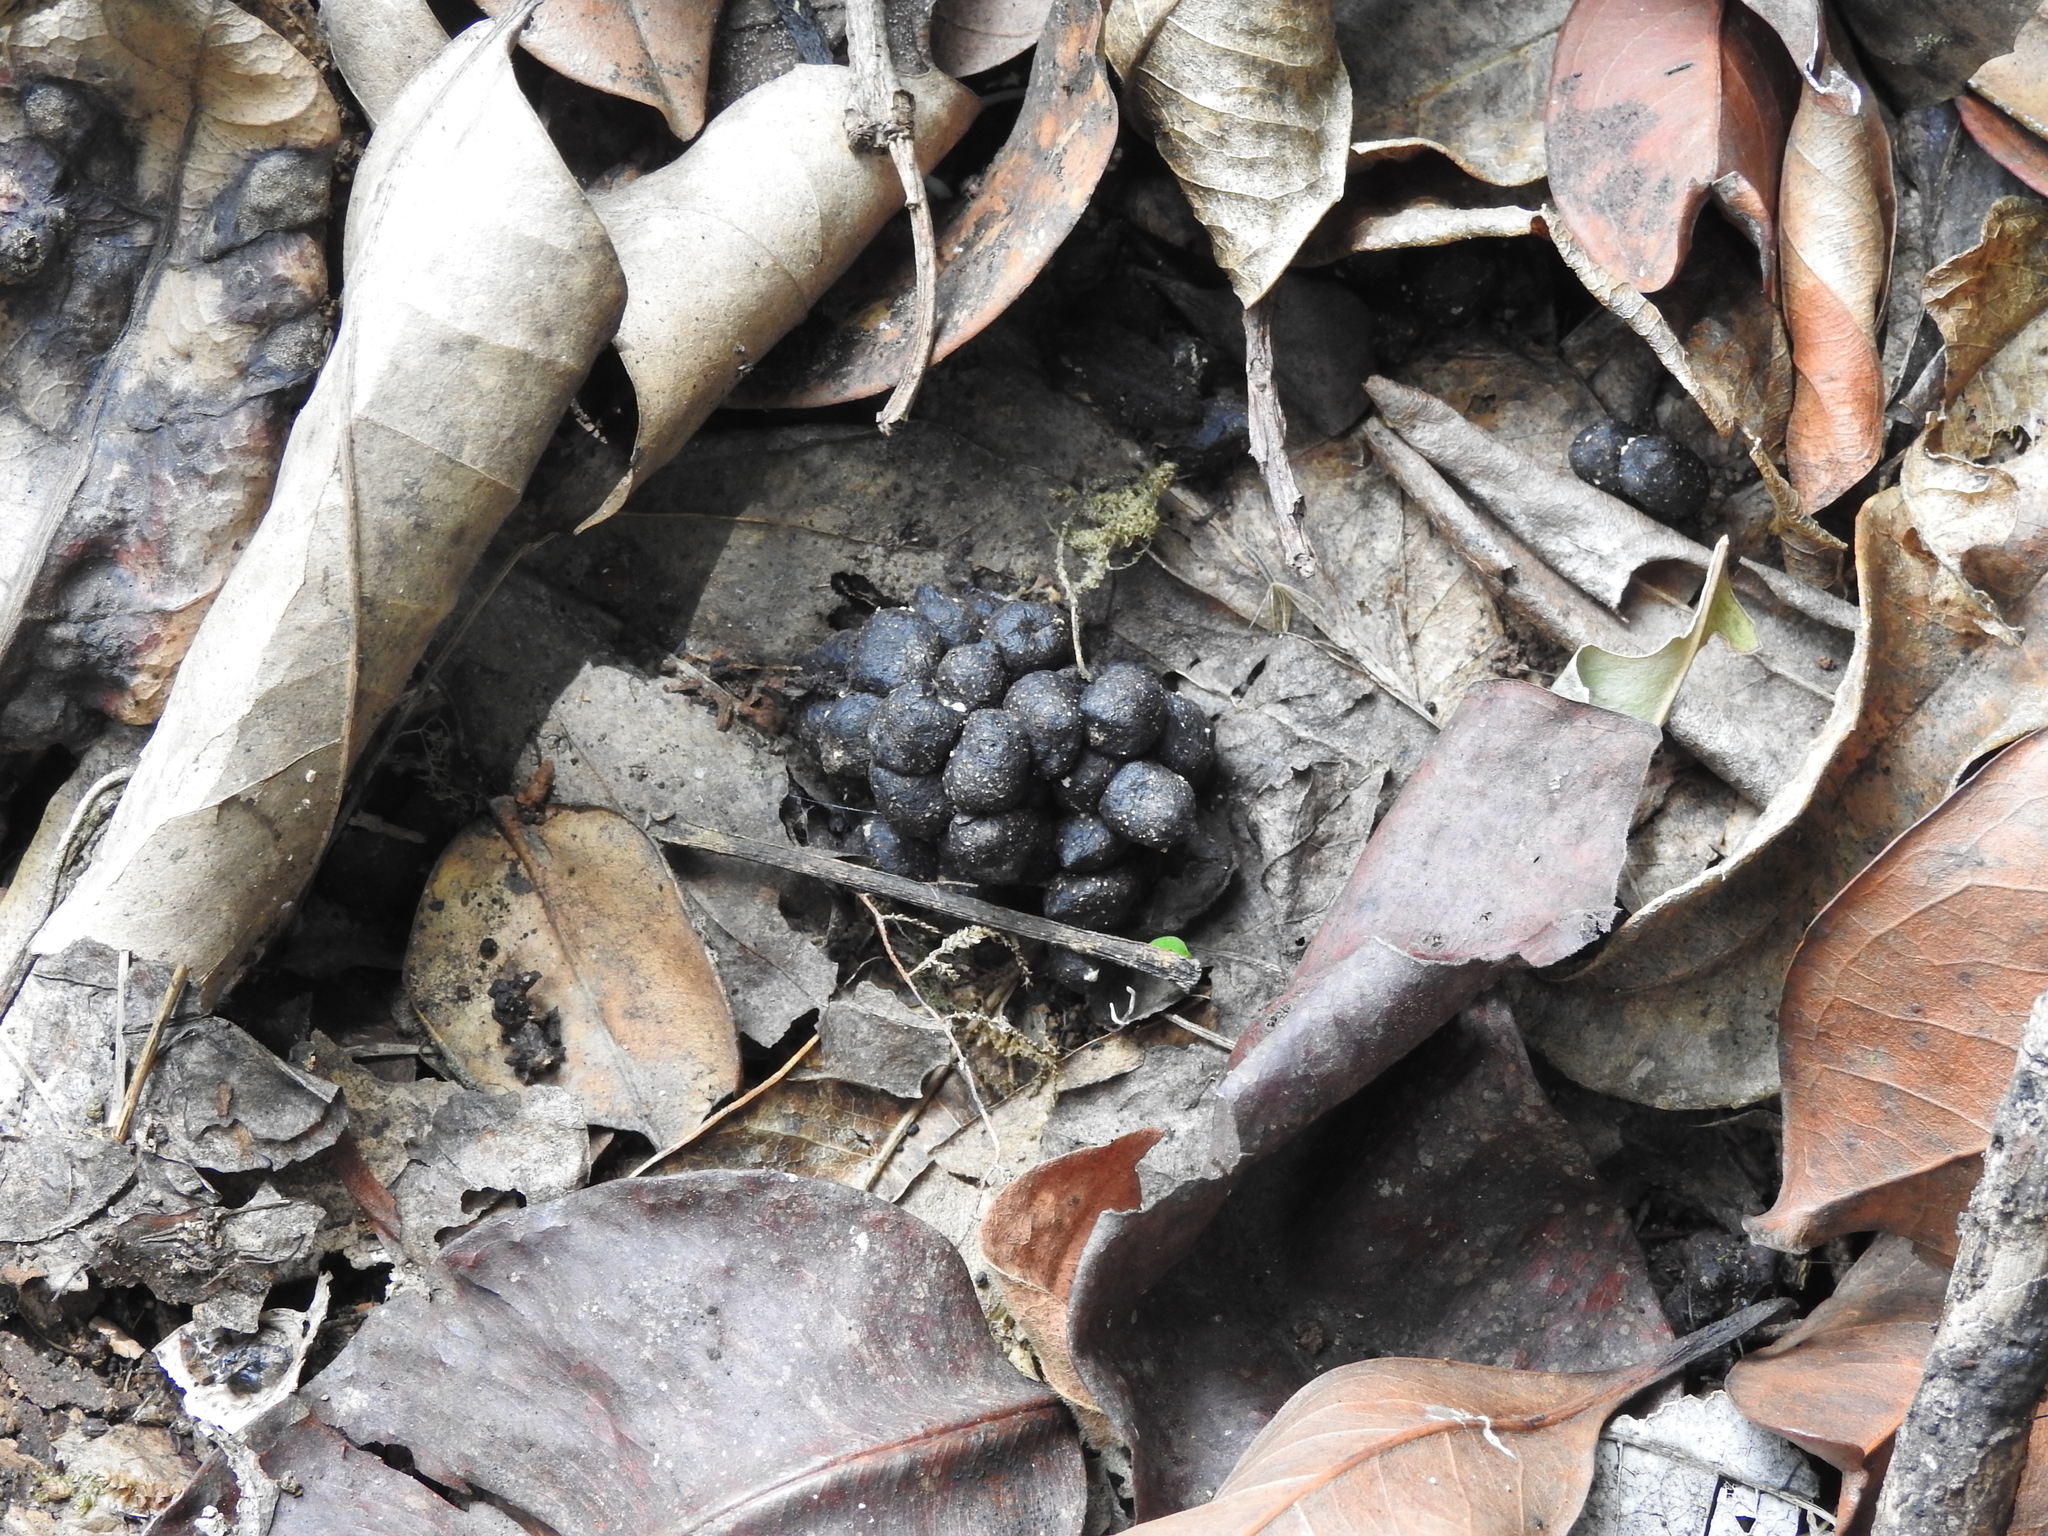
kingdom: Animalia
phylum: Chordata
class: Mammalia
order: Artiodactyla
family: Cervidae
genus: Muntiacus
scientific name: Muntiacus muntjak
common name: Indian muntjac
